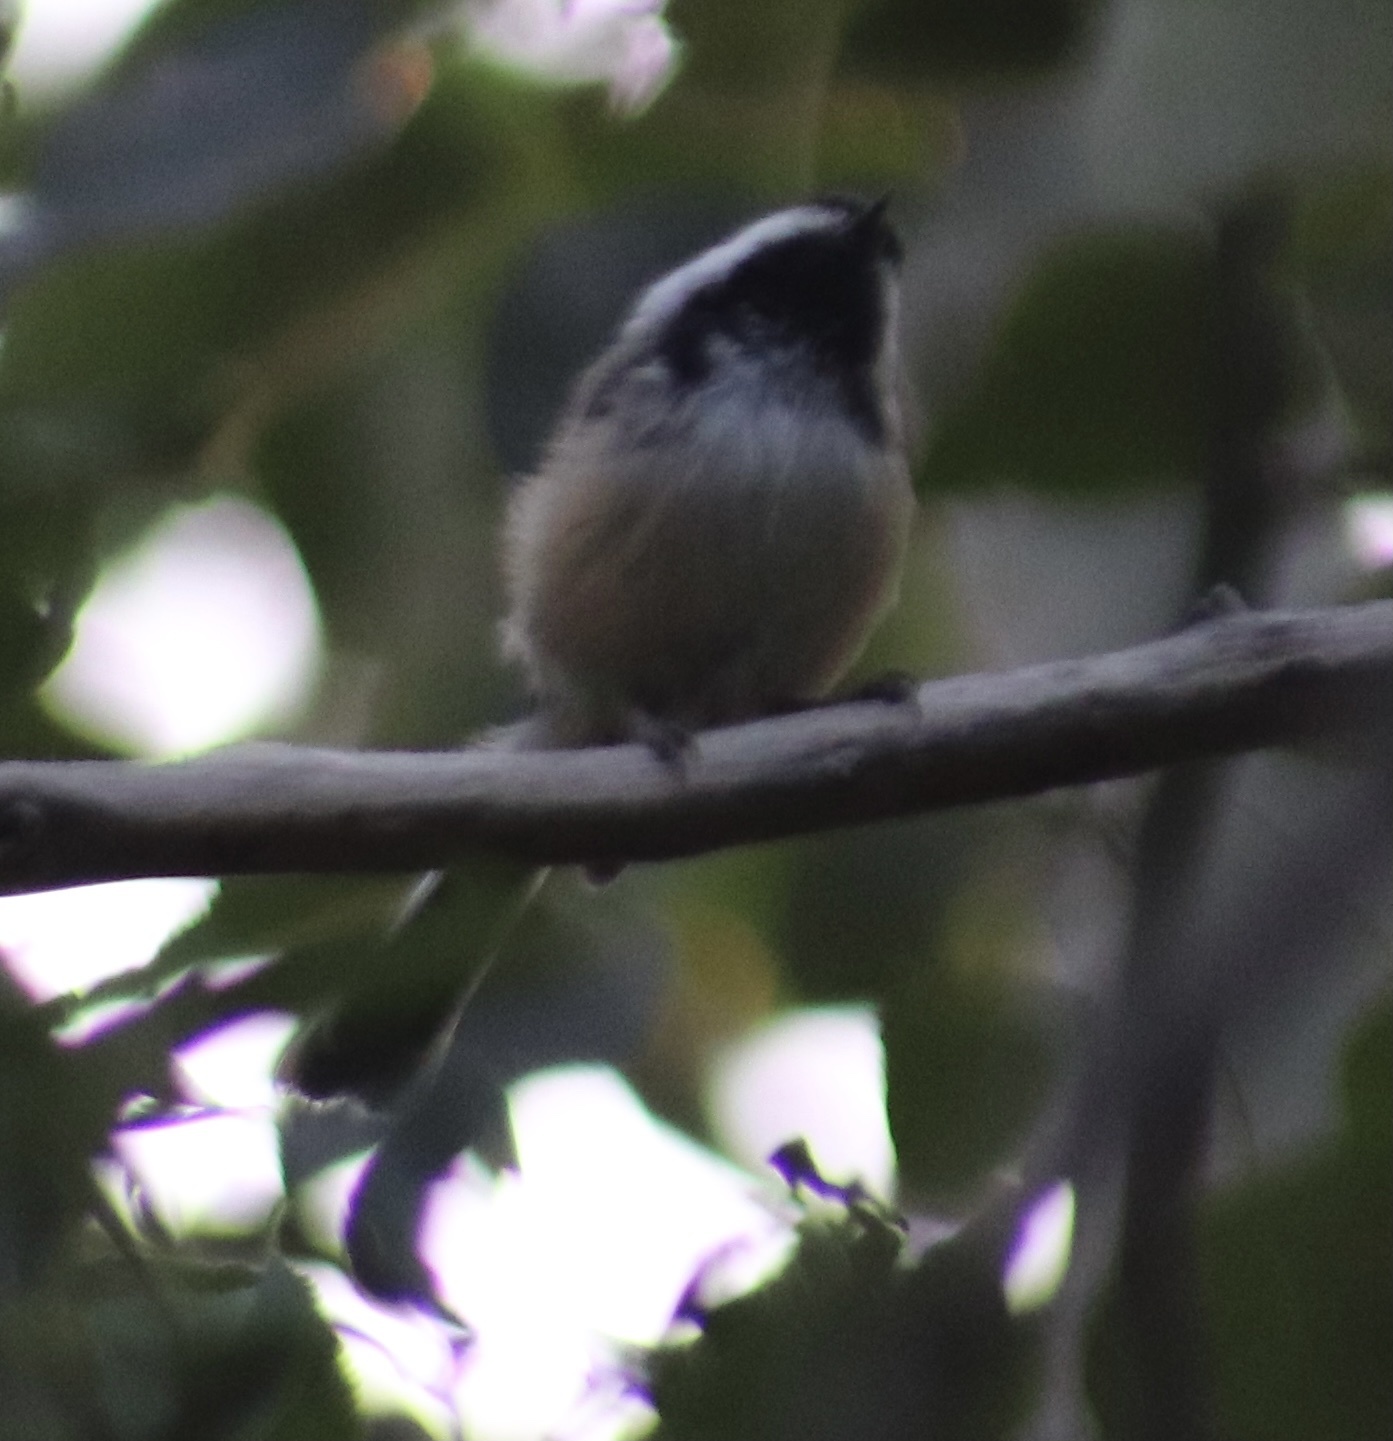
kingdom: Animalia
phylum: Chordata
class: Aves
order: Passeriformes
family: Paridae
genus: Poecile
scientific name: Poecile atricapillus
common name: Black-capped chickadee
